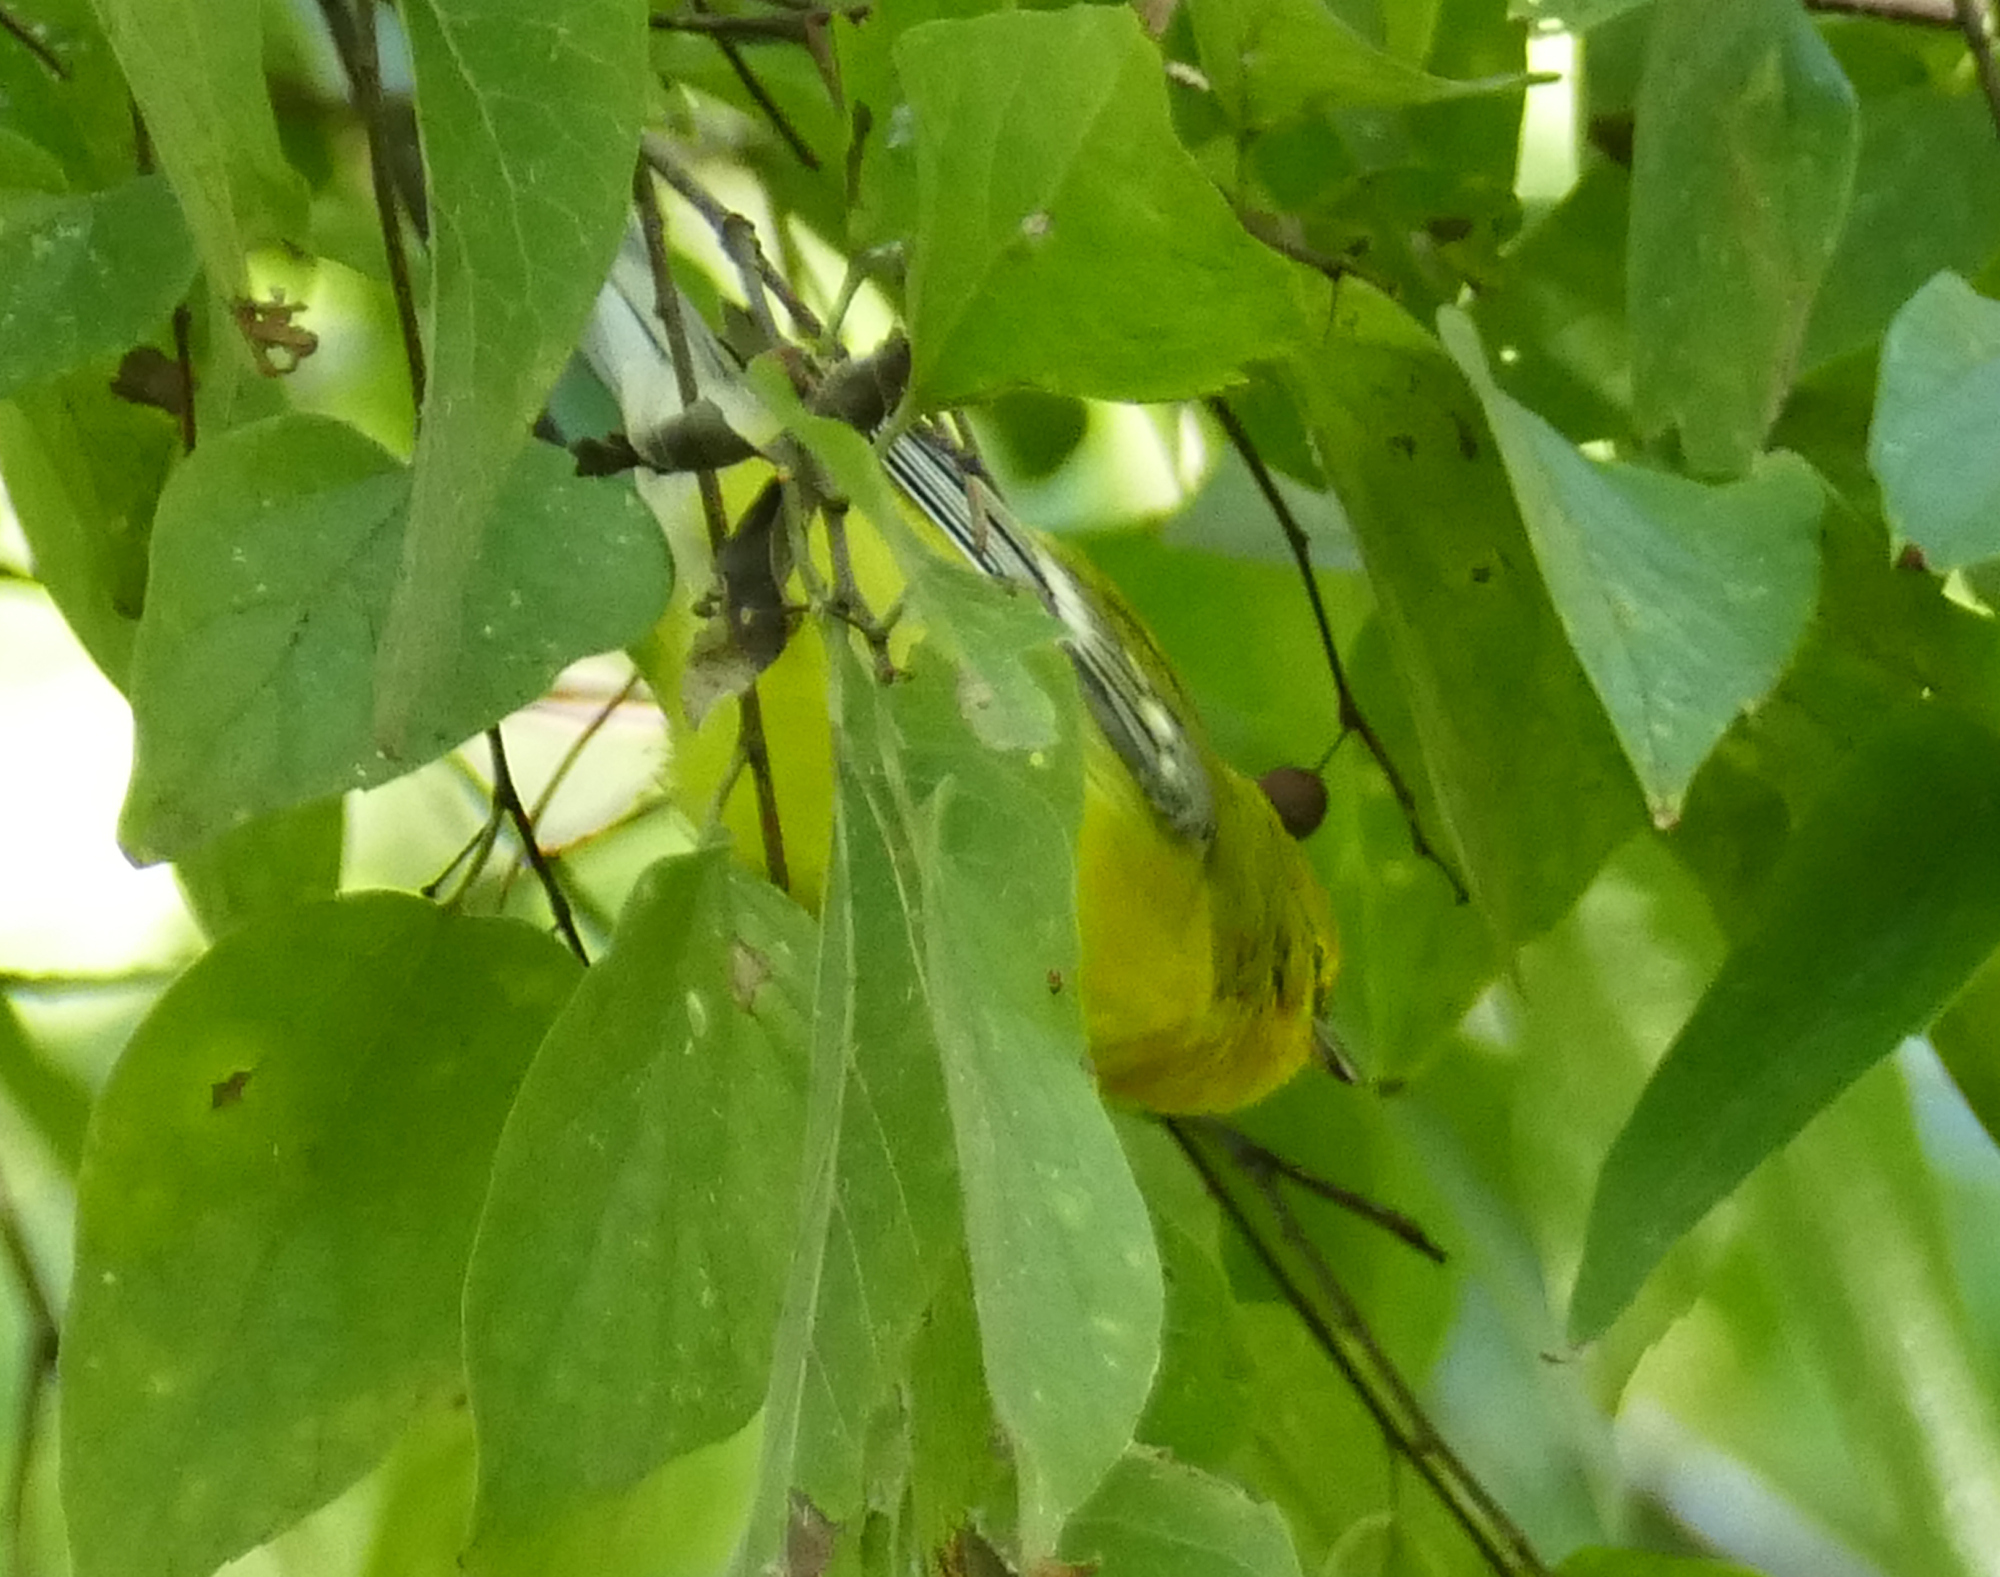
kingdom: Animalia
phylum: Chordata
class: Aves
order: Passeriformes
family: Parulidae
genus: Vermivora
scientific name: Vermivora cyanoptera
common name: Blue-winged warbler
